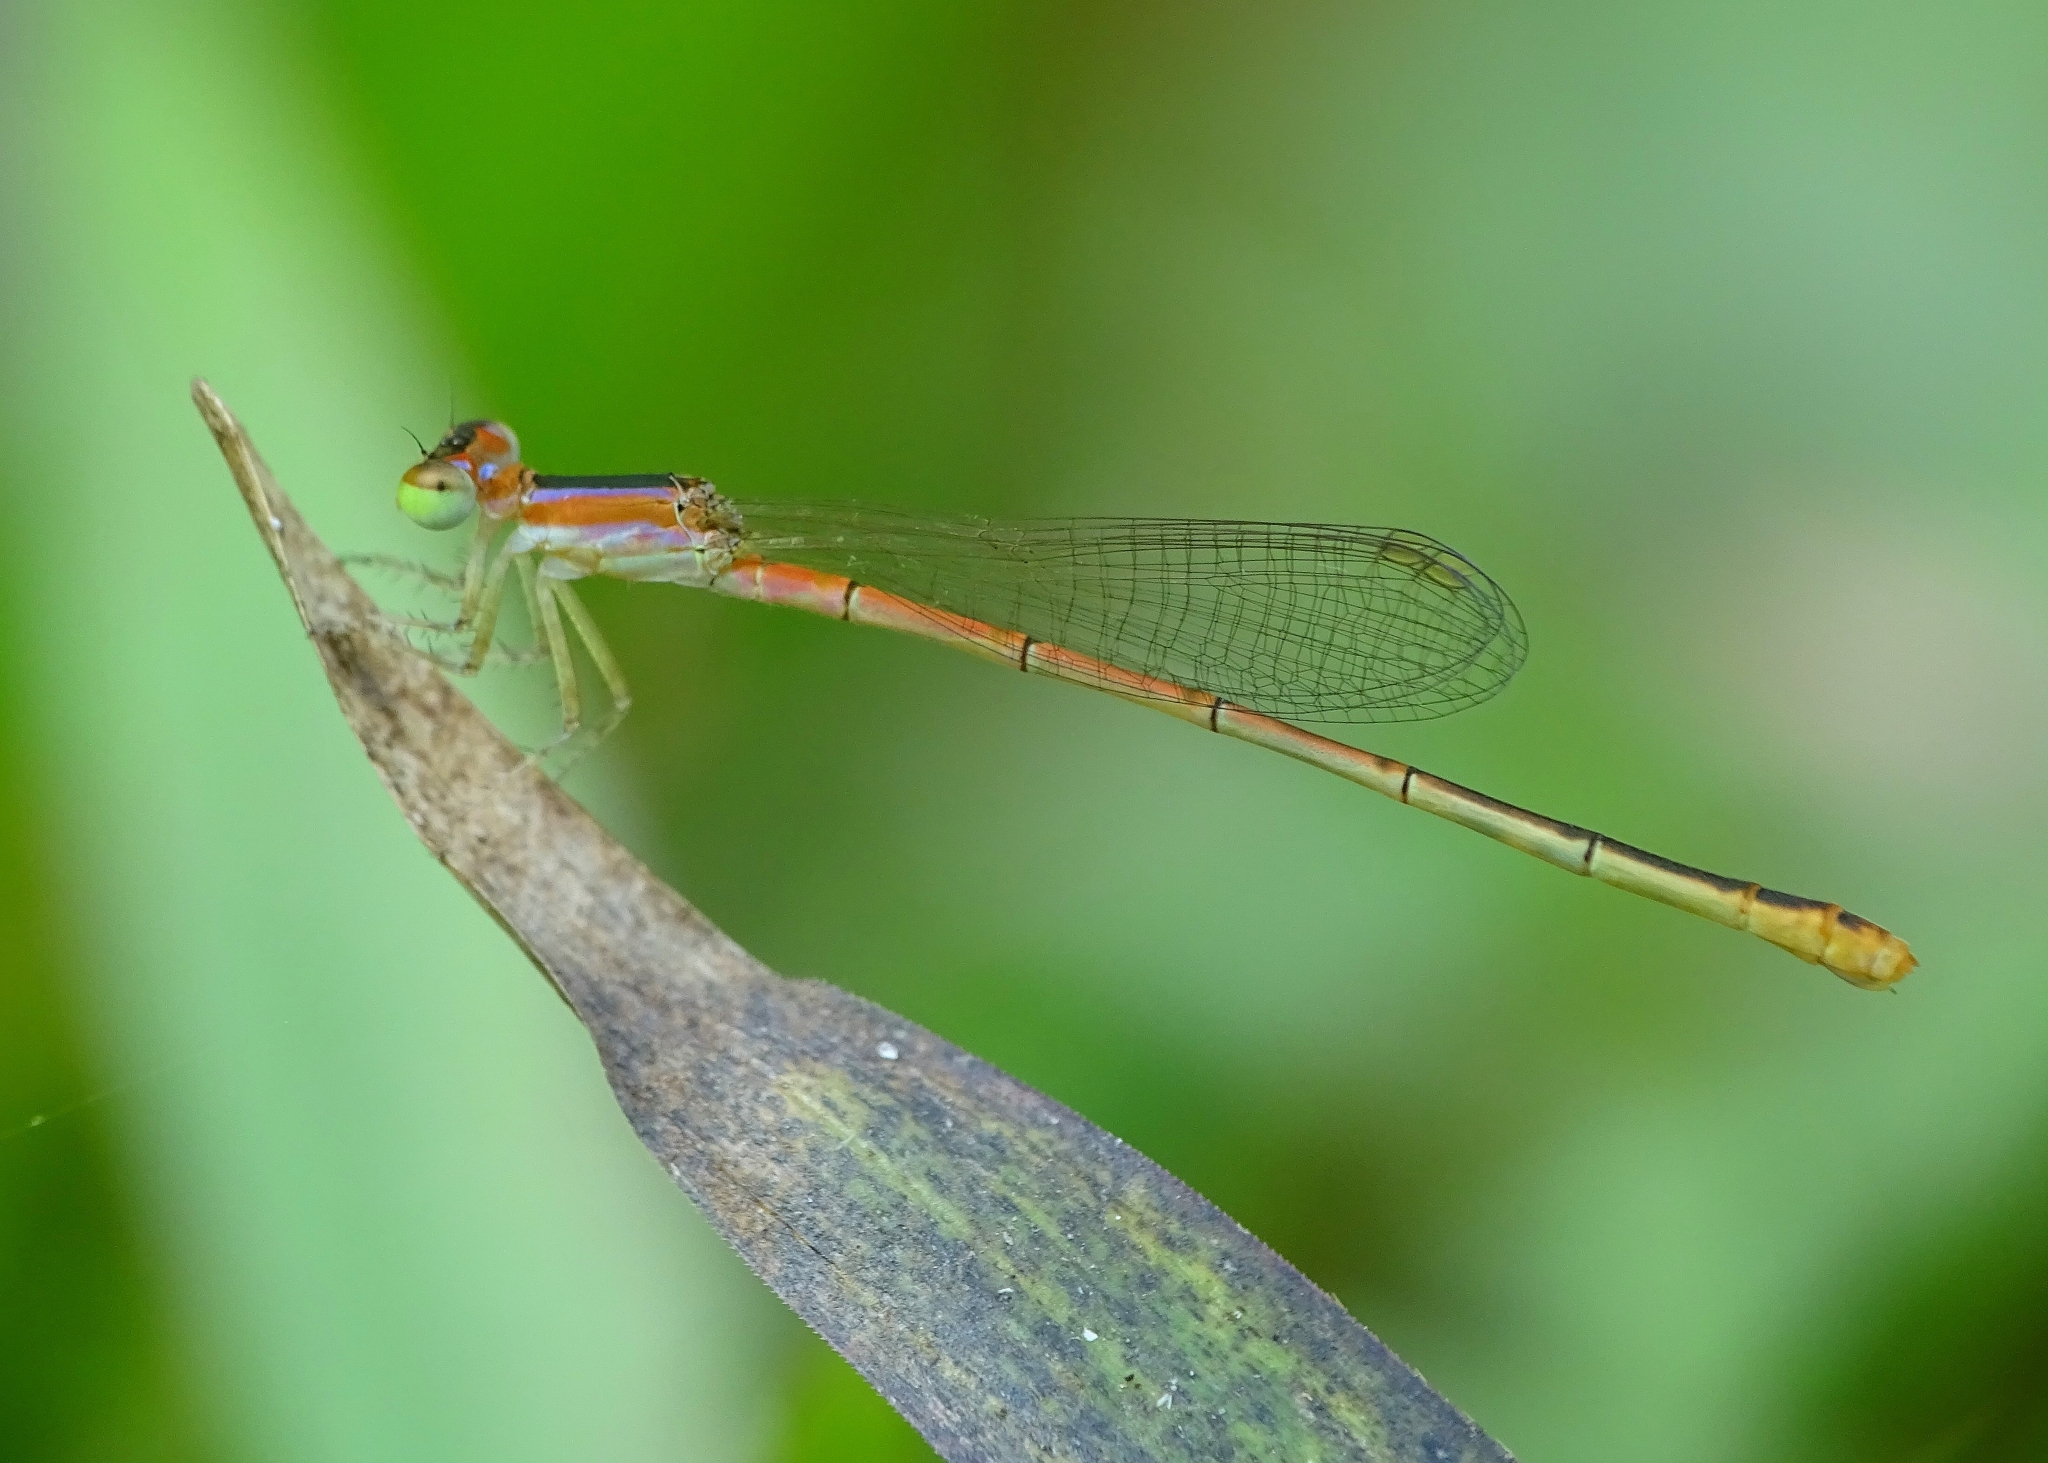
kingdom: Animalia
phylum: Arthropoda
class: Insecta
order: Odonata
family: Coenagrionidae
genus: Agriocnemis
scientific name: Agriocnemis pygmaea
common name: Pygmy wisp
